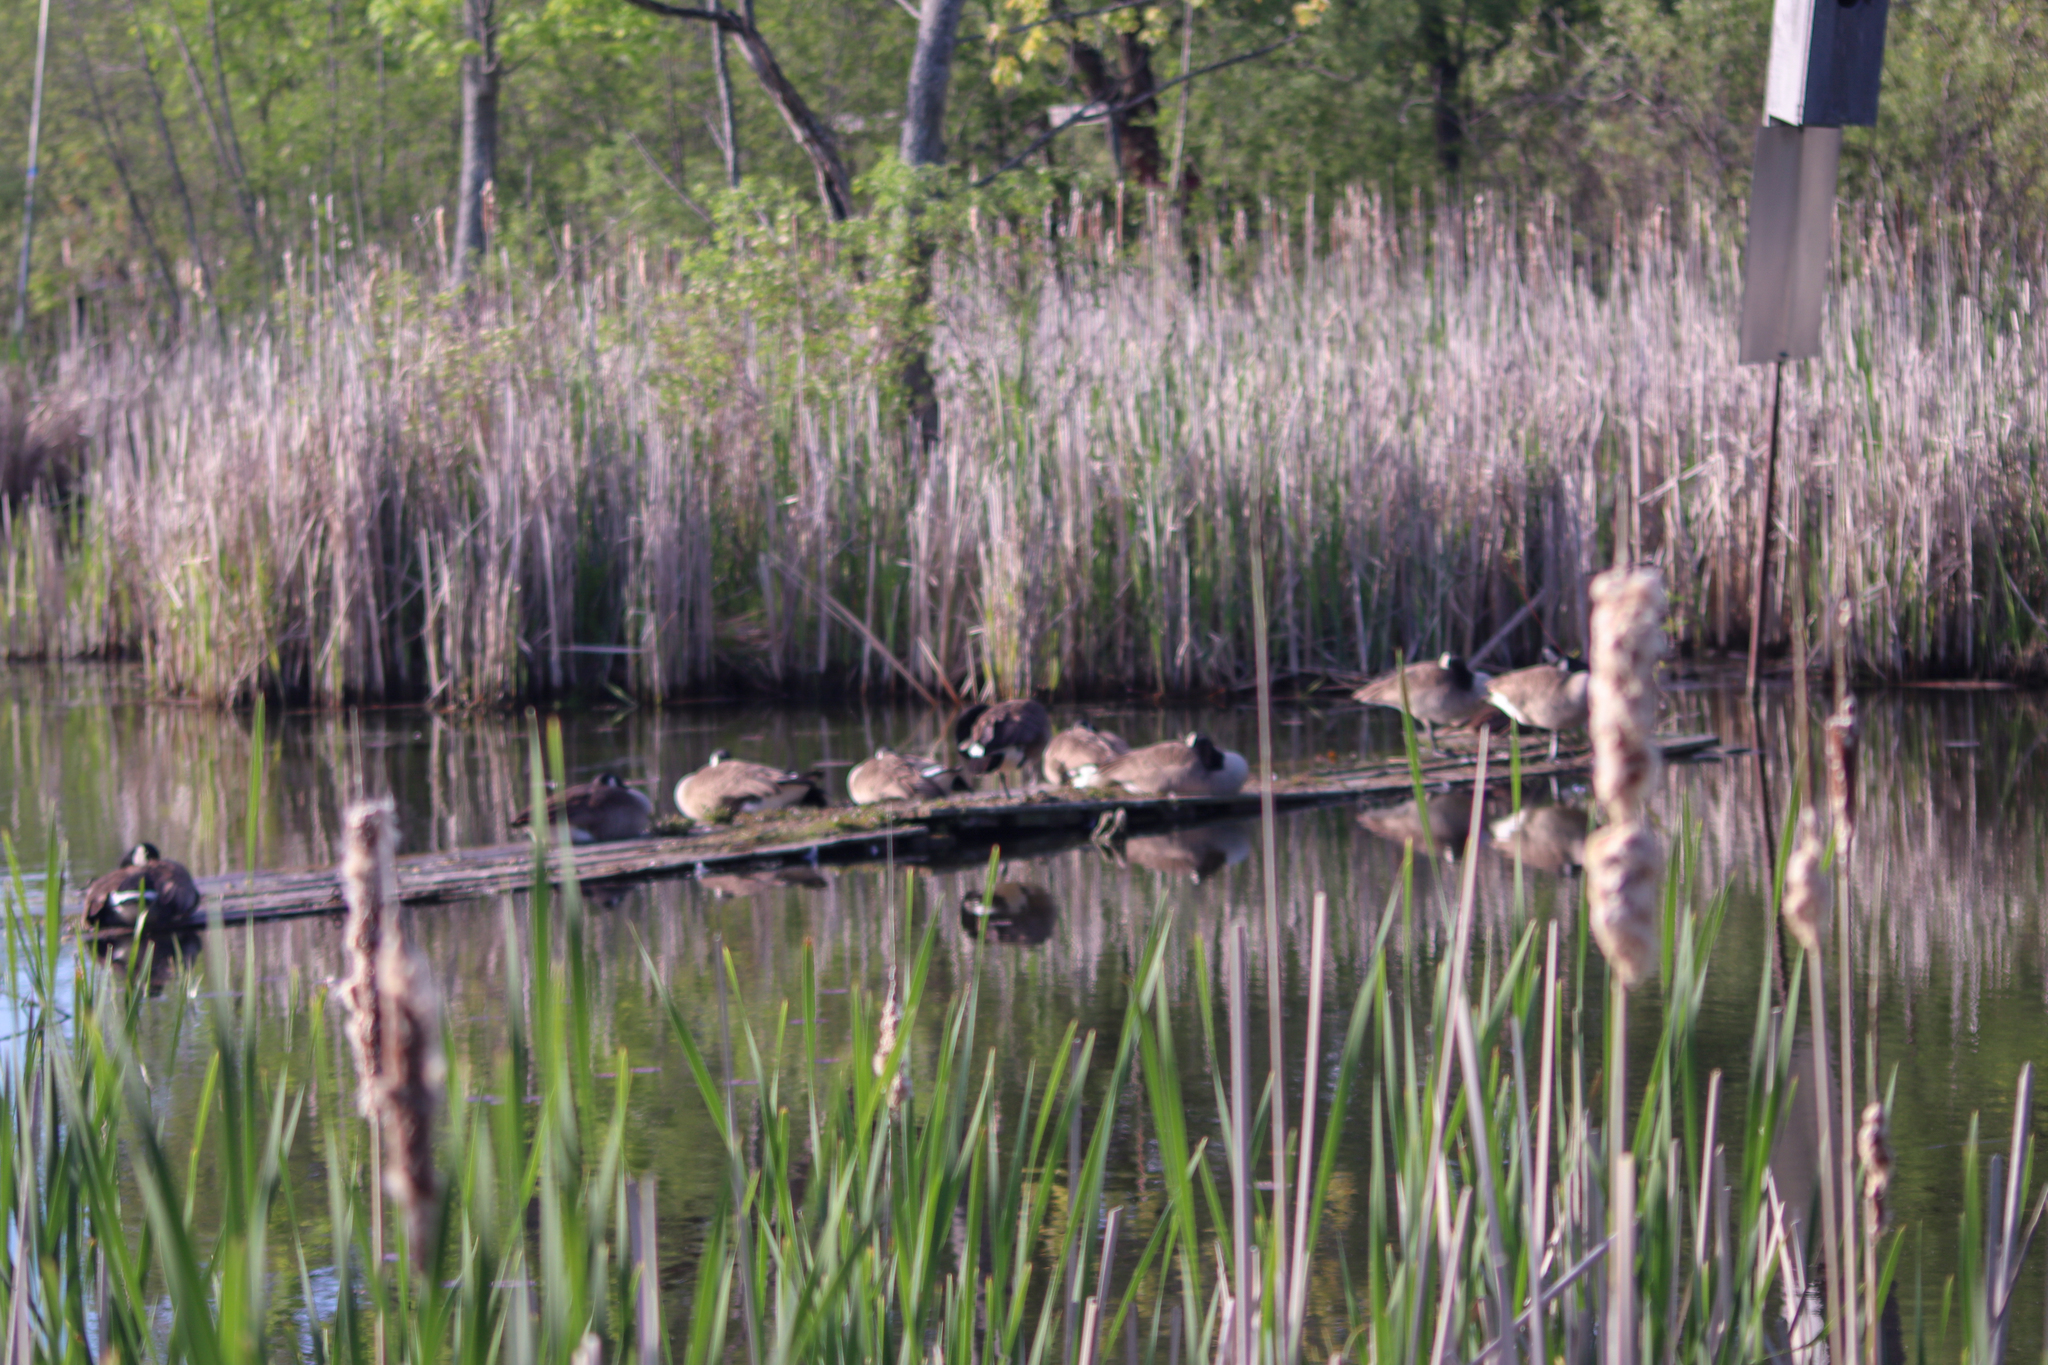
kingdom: Animalia
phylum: Chordata
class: Aves
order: Anseriformes
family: Anatidae
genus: Branta
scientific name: Branta canadensis
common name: Canada goose
